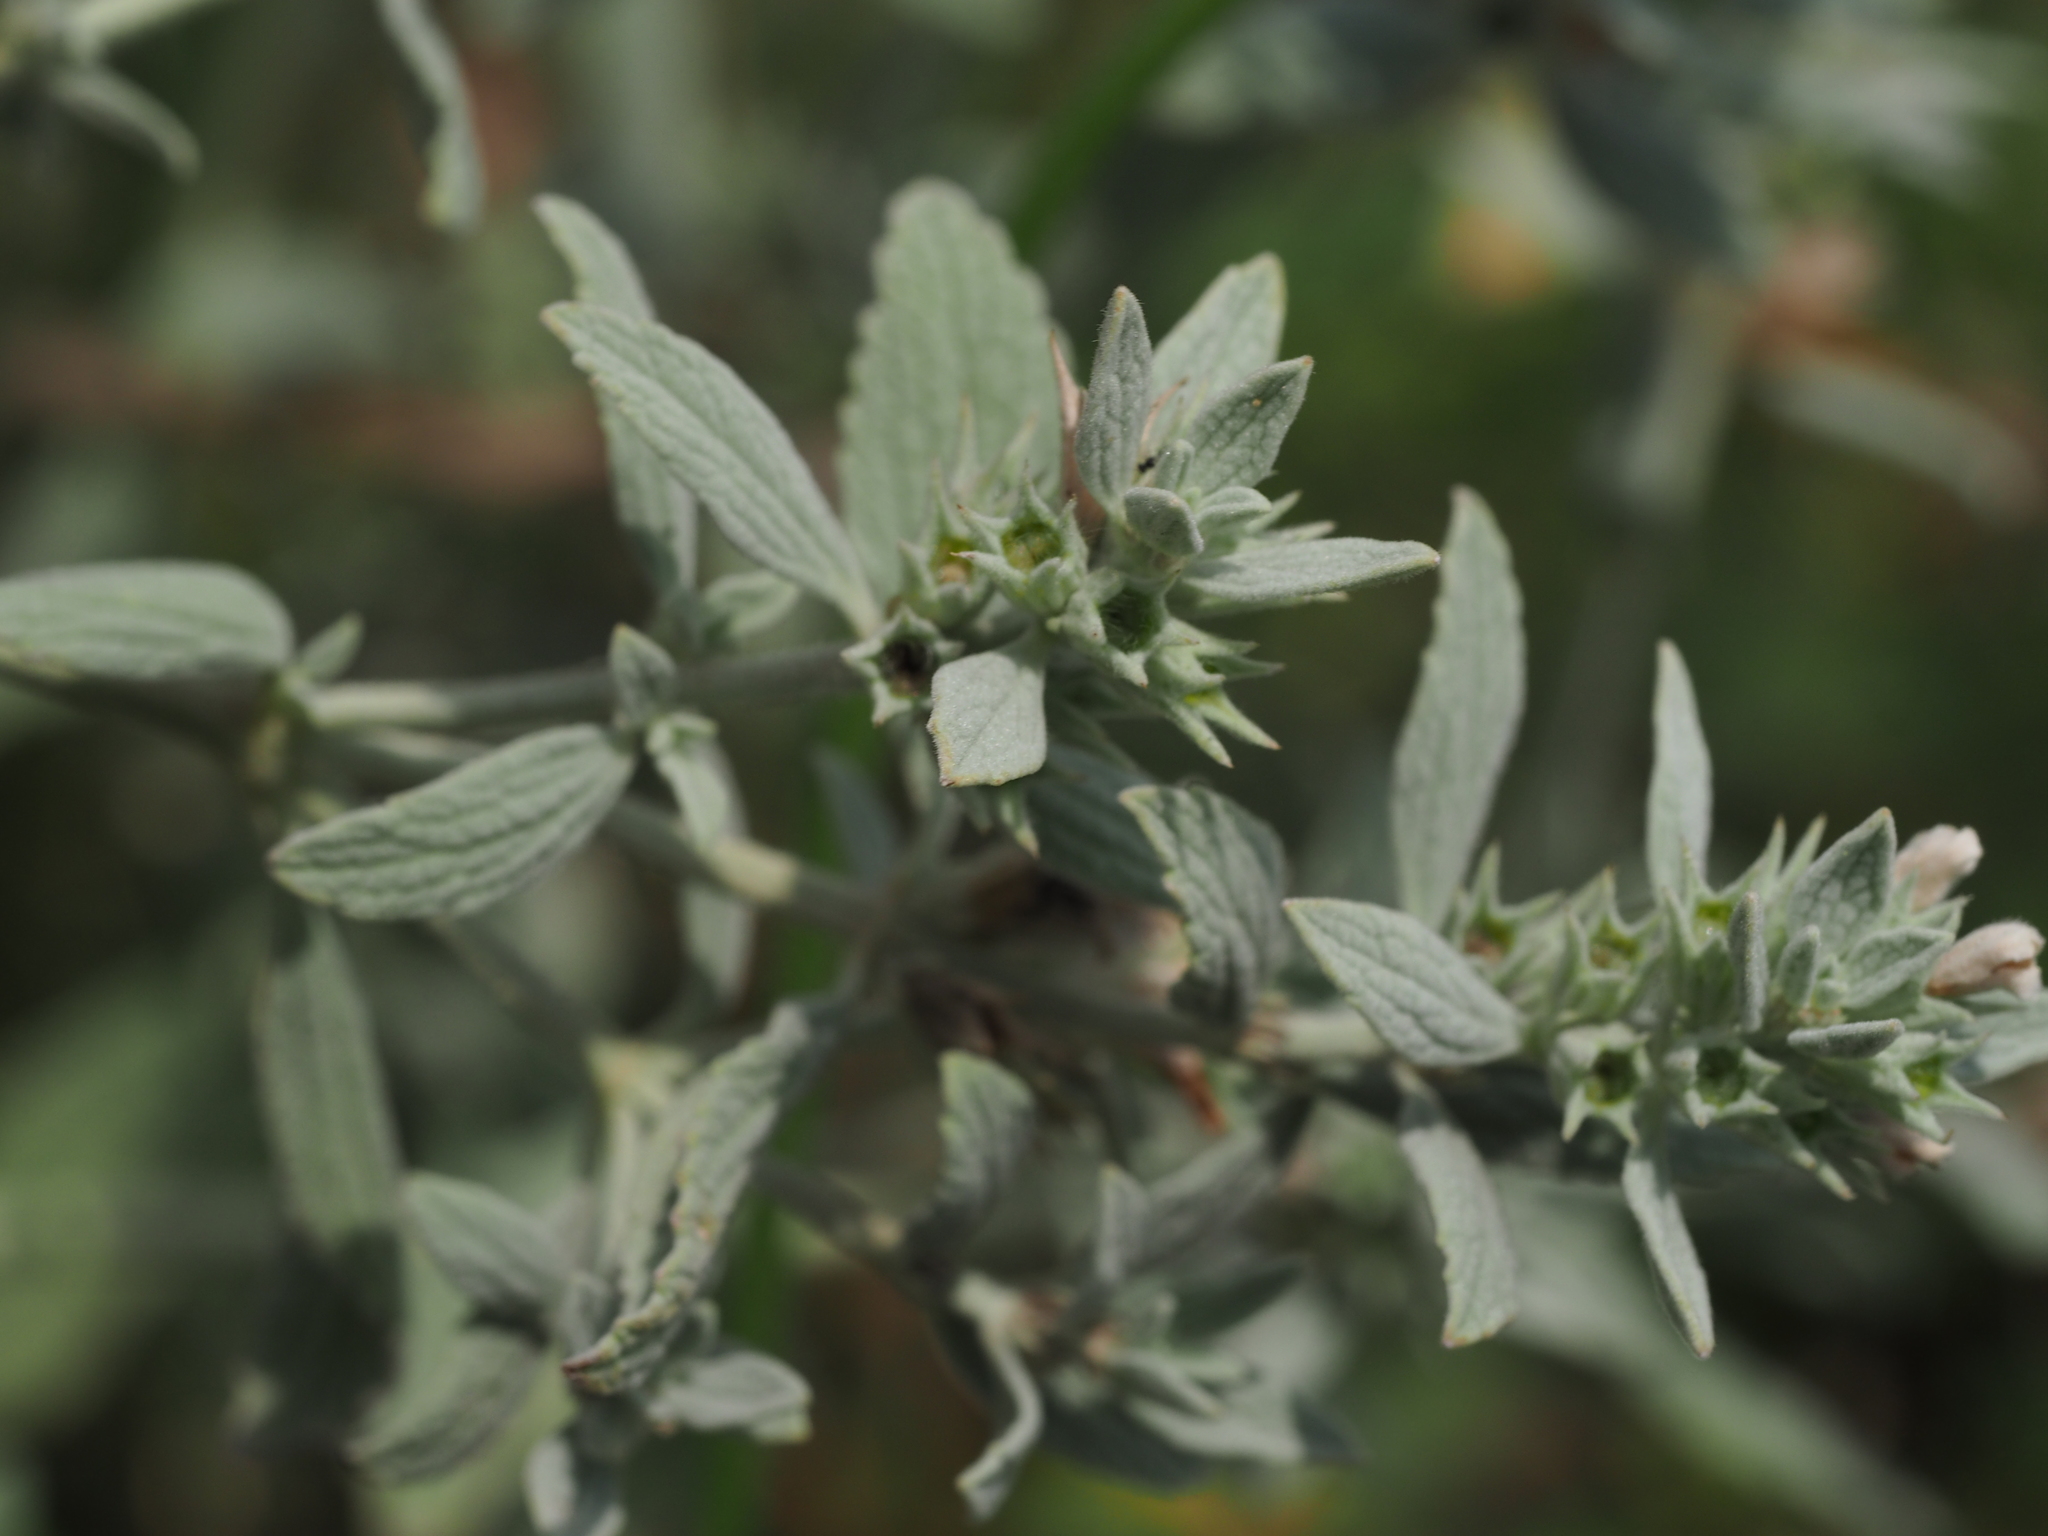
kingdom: Plantae
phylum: Tracheophyta
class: Magnoliopsida
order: Lamiales
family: Lamiaceae
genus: Marrubium
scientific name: Marrubium peregrinum
